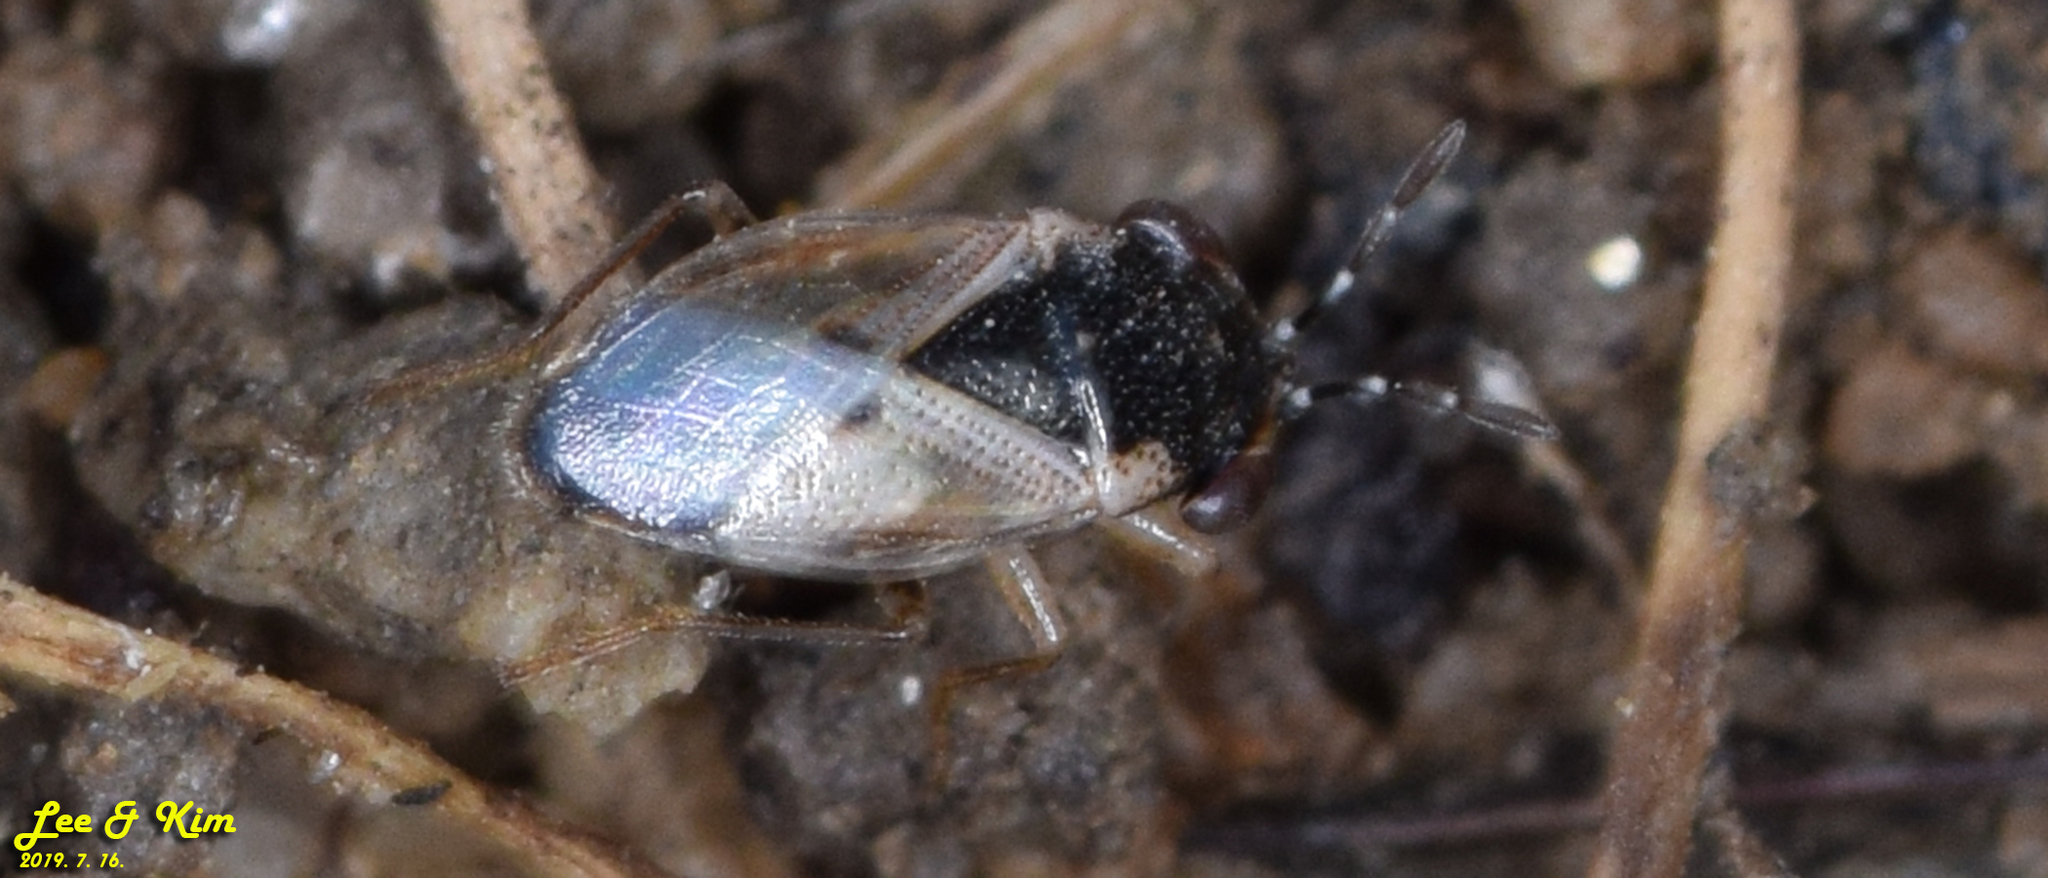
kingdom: Animalia
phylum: Arthropoda
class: Insecta
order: Hemiptera
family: Geocoridae
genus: Geocoris
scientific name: Geocoris pallidipennis
